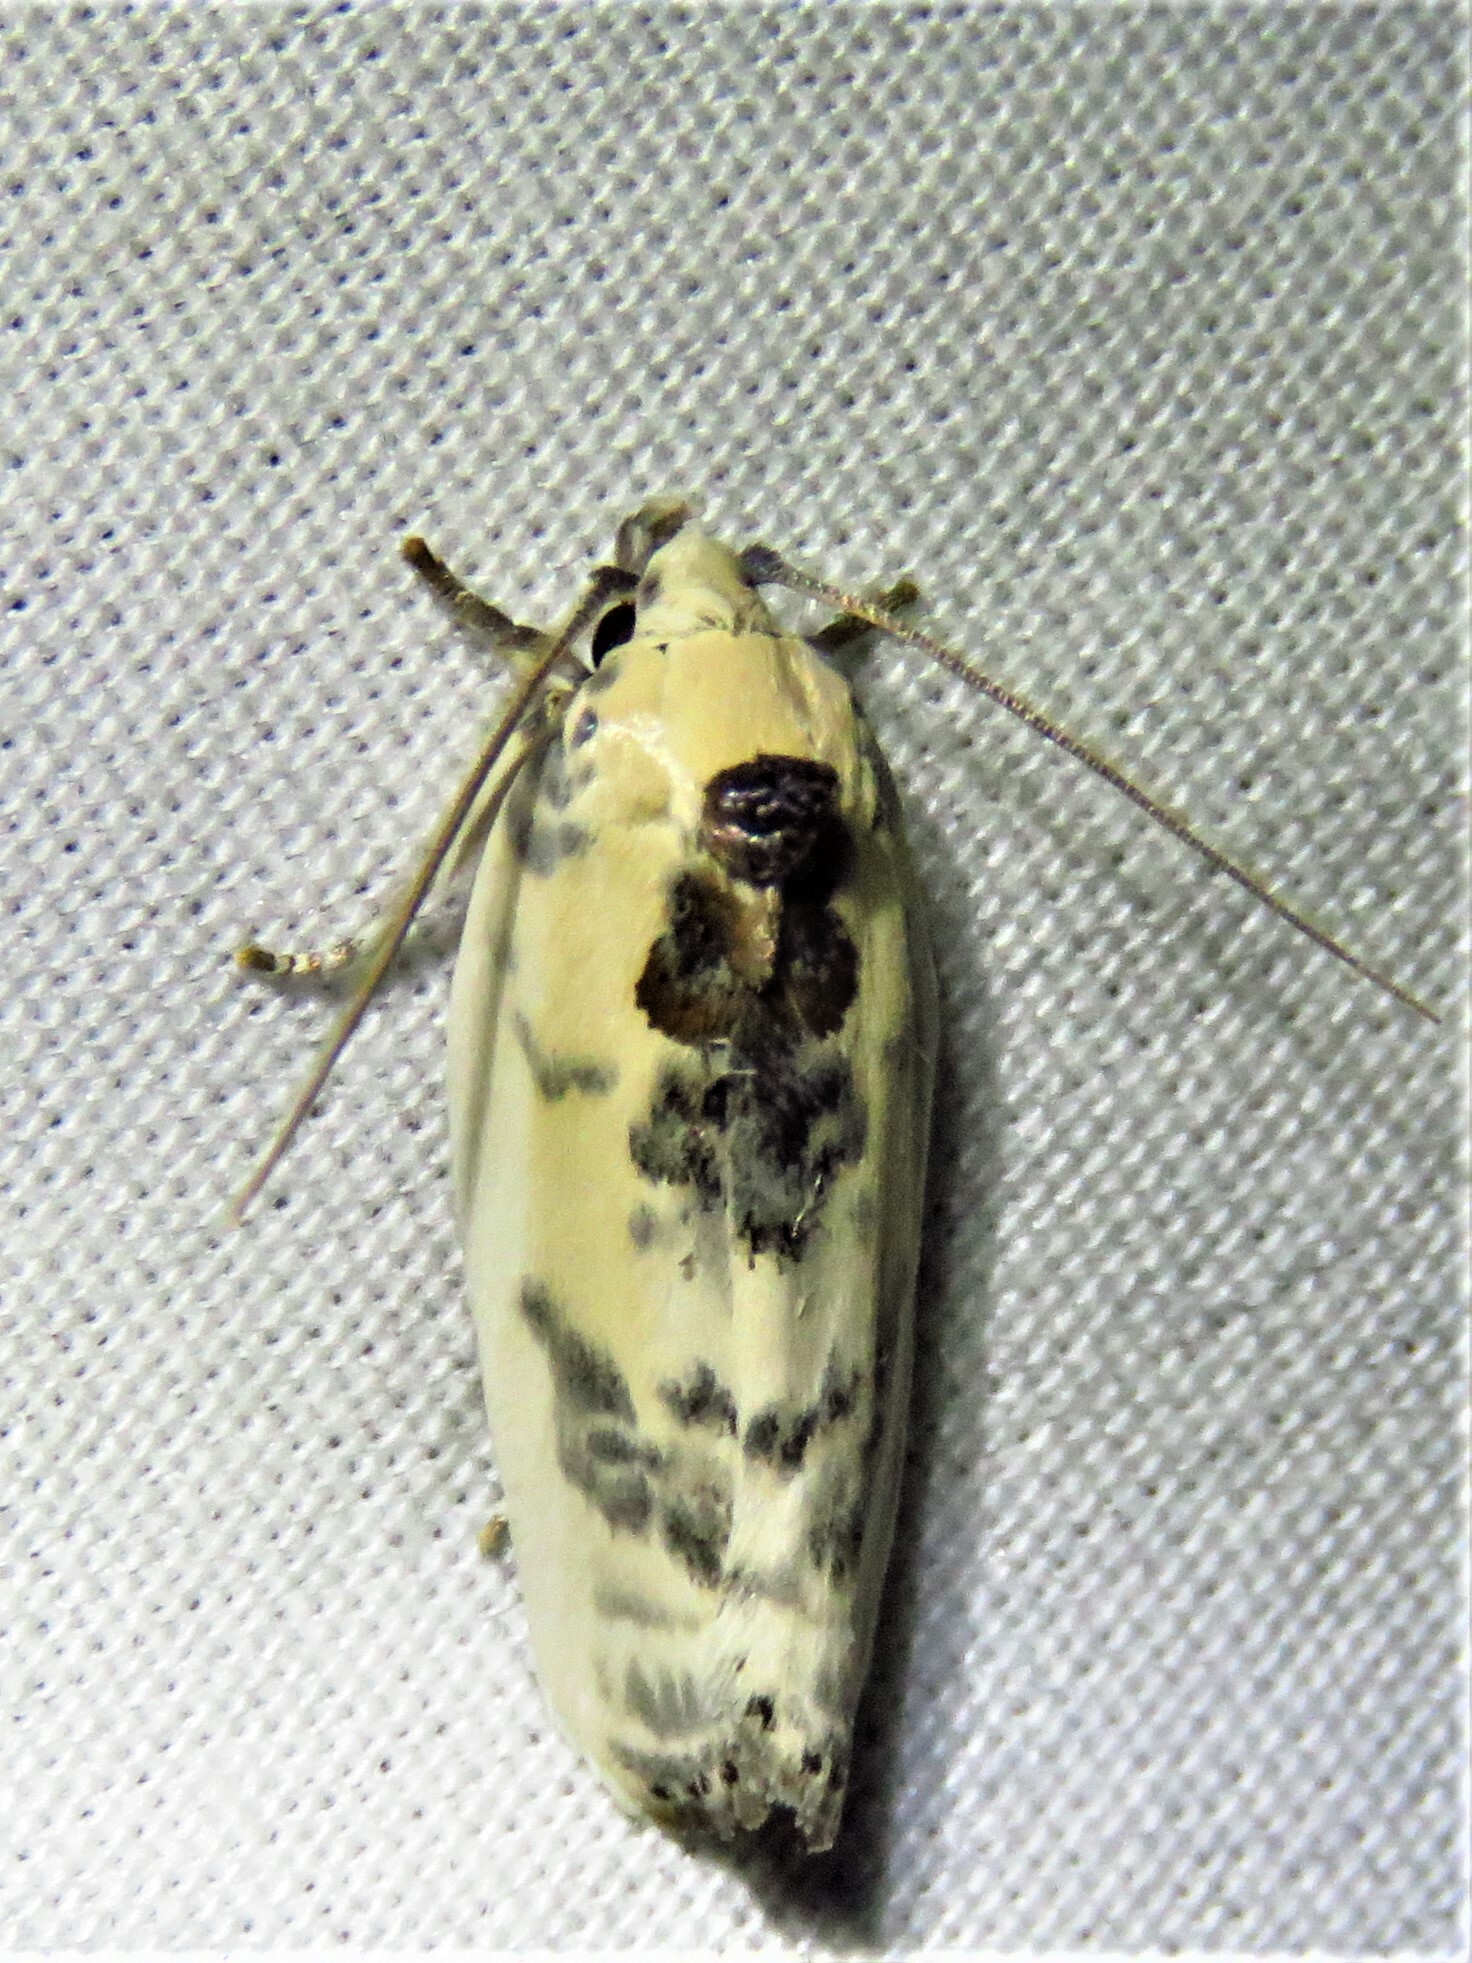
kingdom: Animalia
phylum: Arthropoda
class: Insecta
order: Lepidoptera
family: Depressariidae
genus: Antaeotricha
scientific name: Antaeotricha schlaegeri
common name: Schlaeger's fruitworm moth
